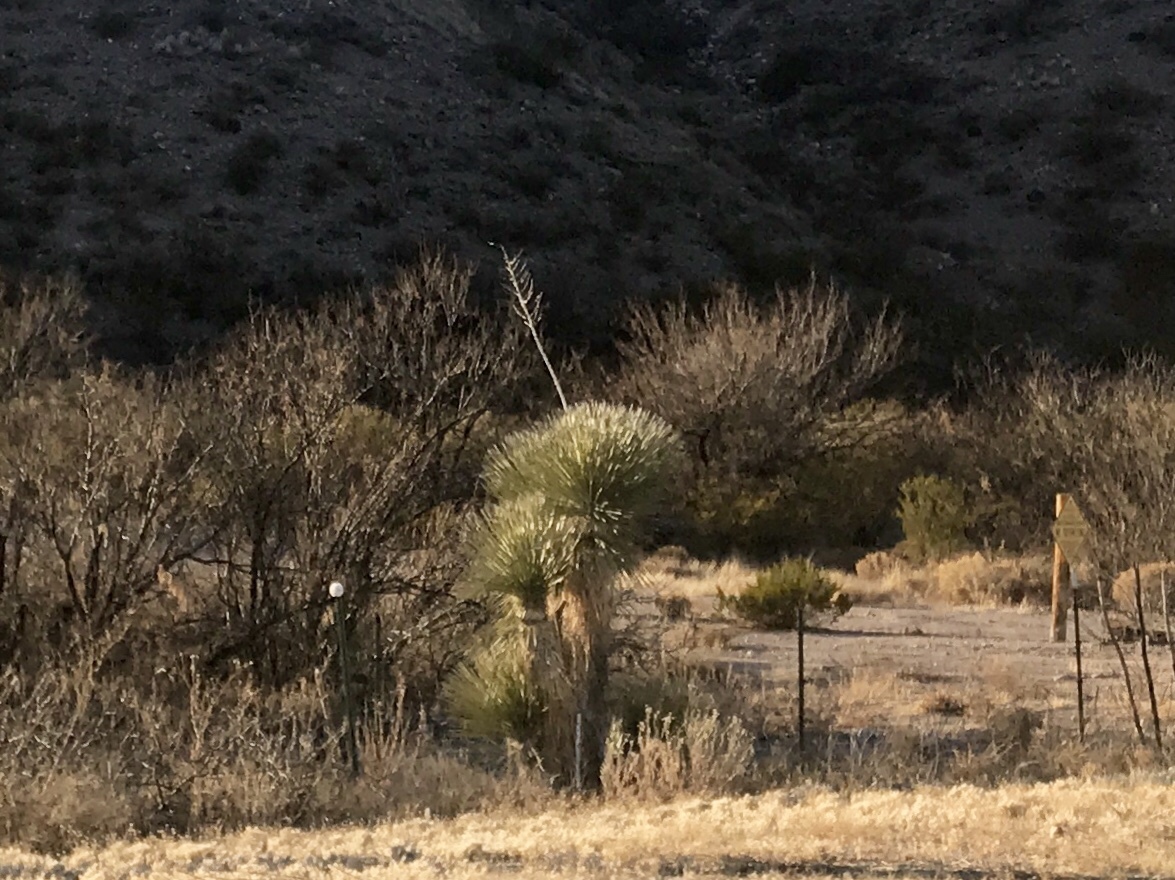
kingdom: Plantae
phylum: Tracheophyta
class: Liliopsida
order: Asparagales
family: Asparagaceae
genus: Yucca
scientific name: Yucca elata
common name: Palmella
